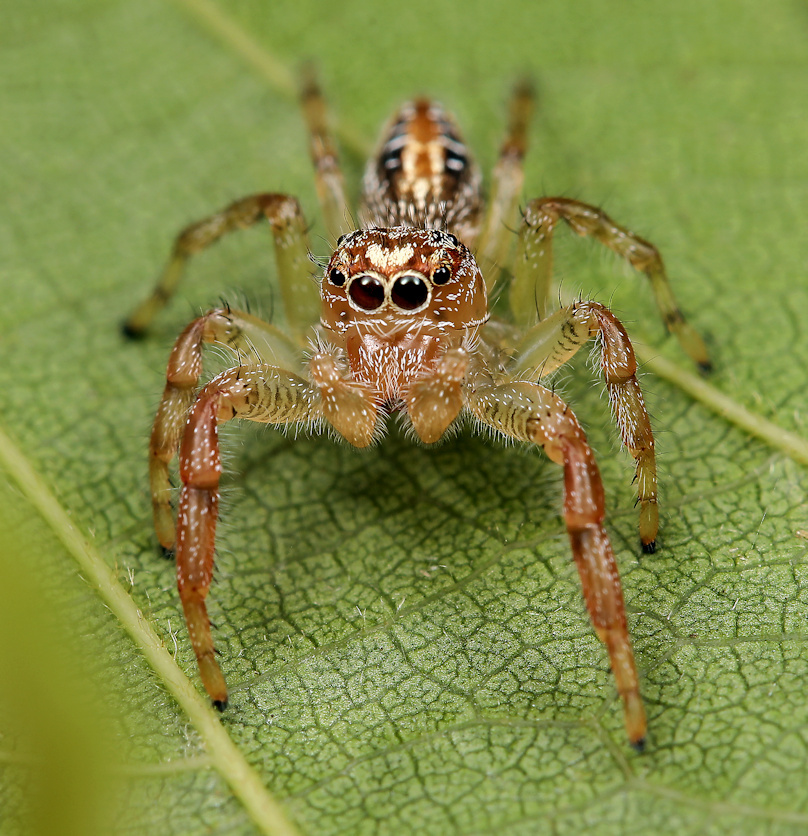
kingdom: Animalia
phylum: Arthropoda
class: Arachnida
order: Araneae
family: Salticidae
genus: Thyene
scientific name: Thyene ogdeni
